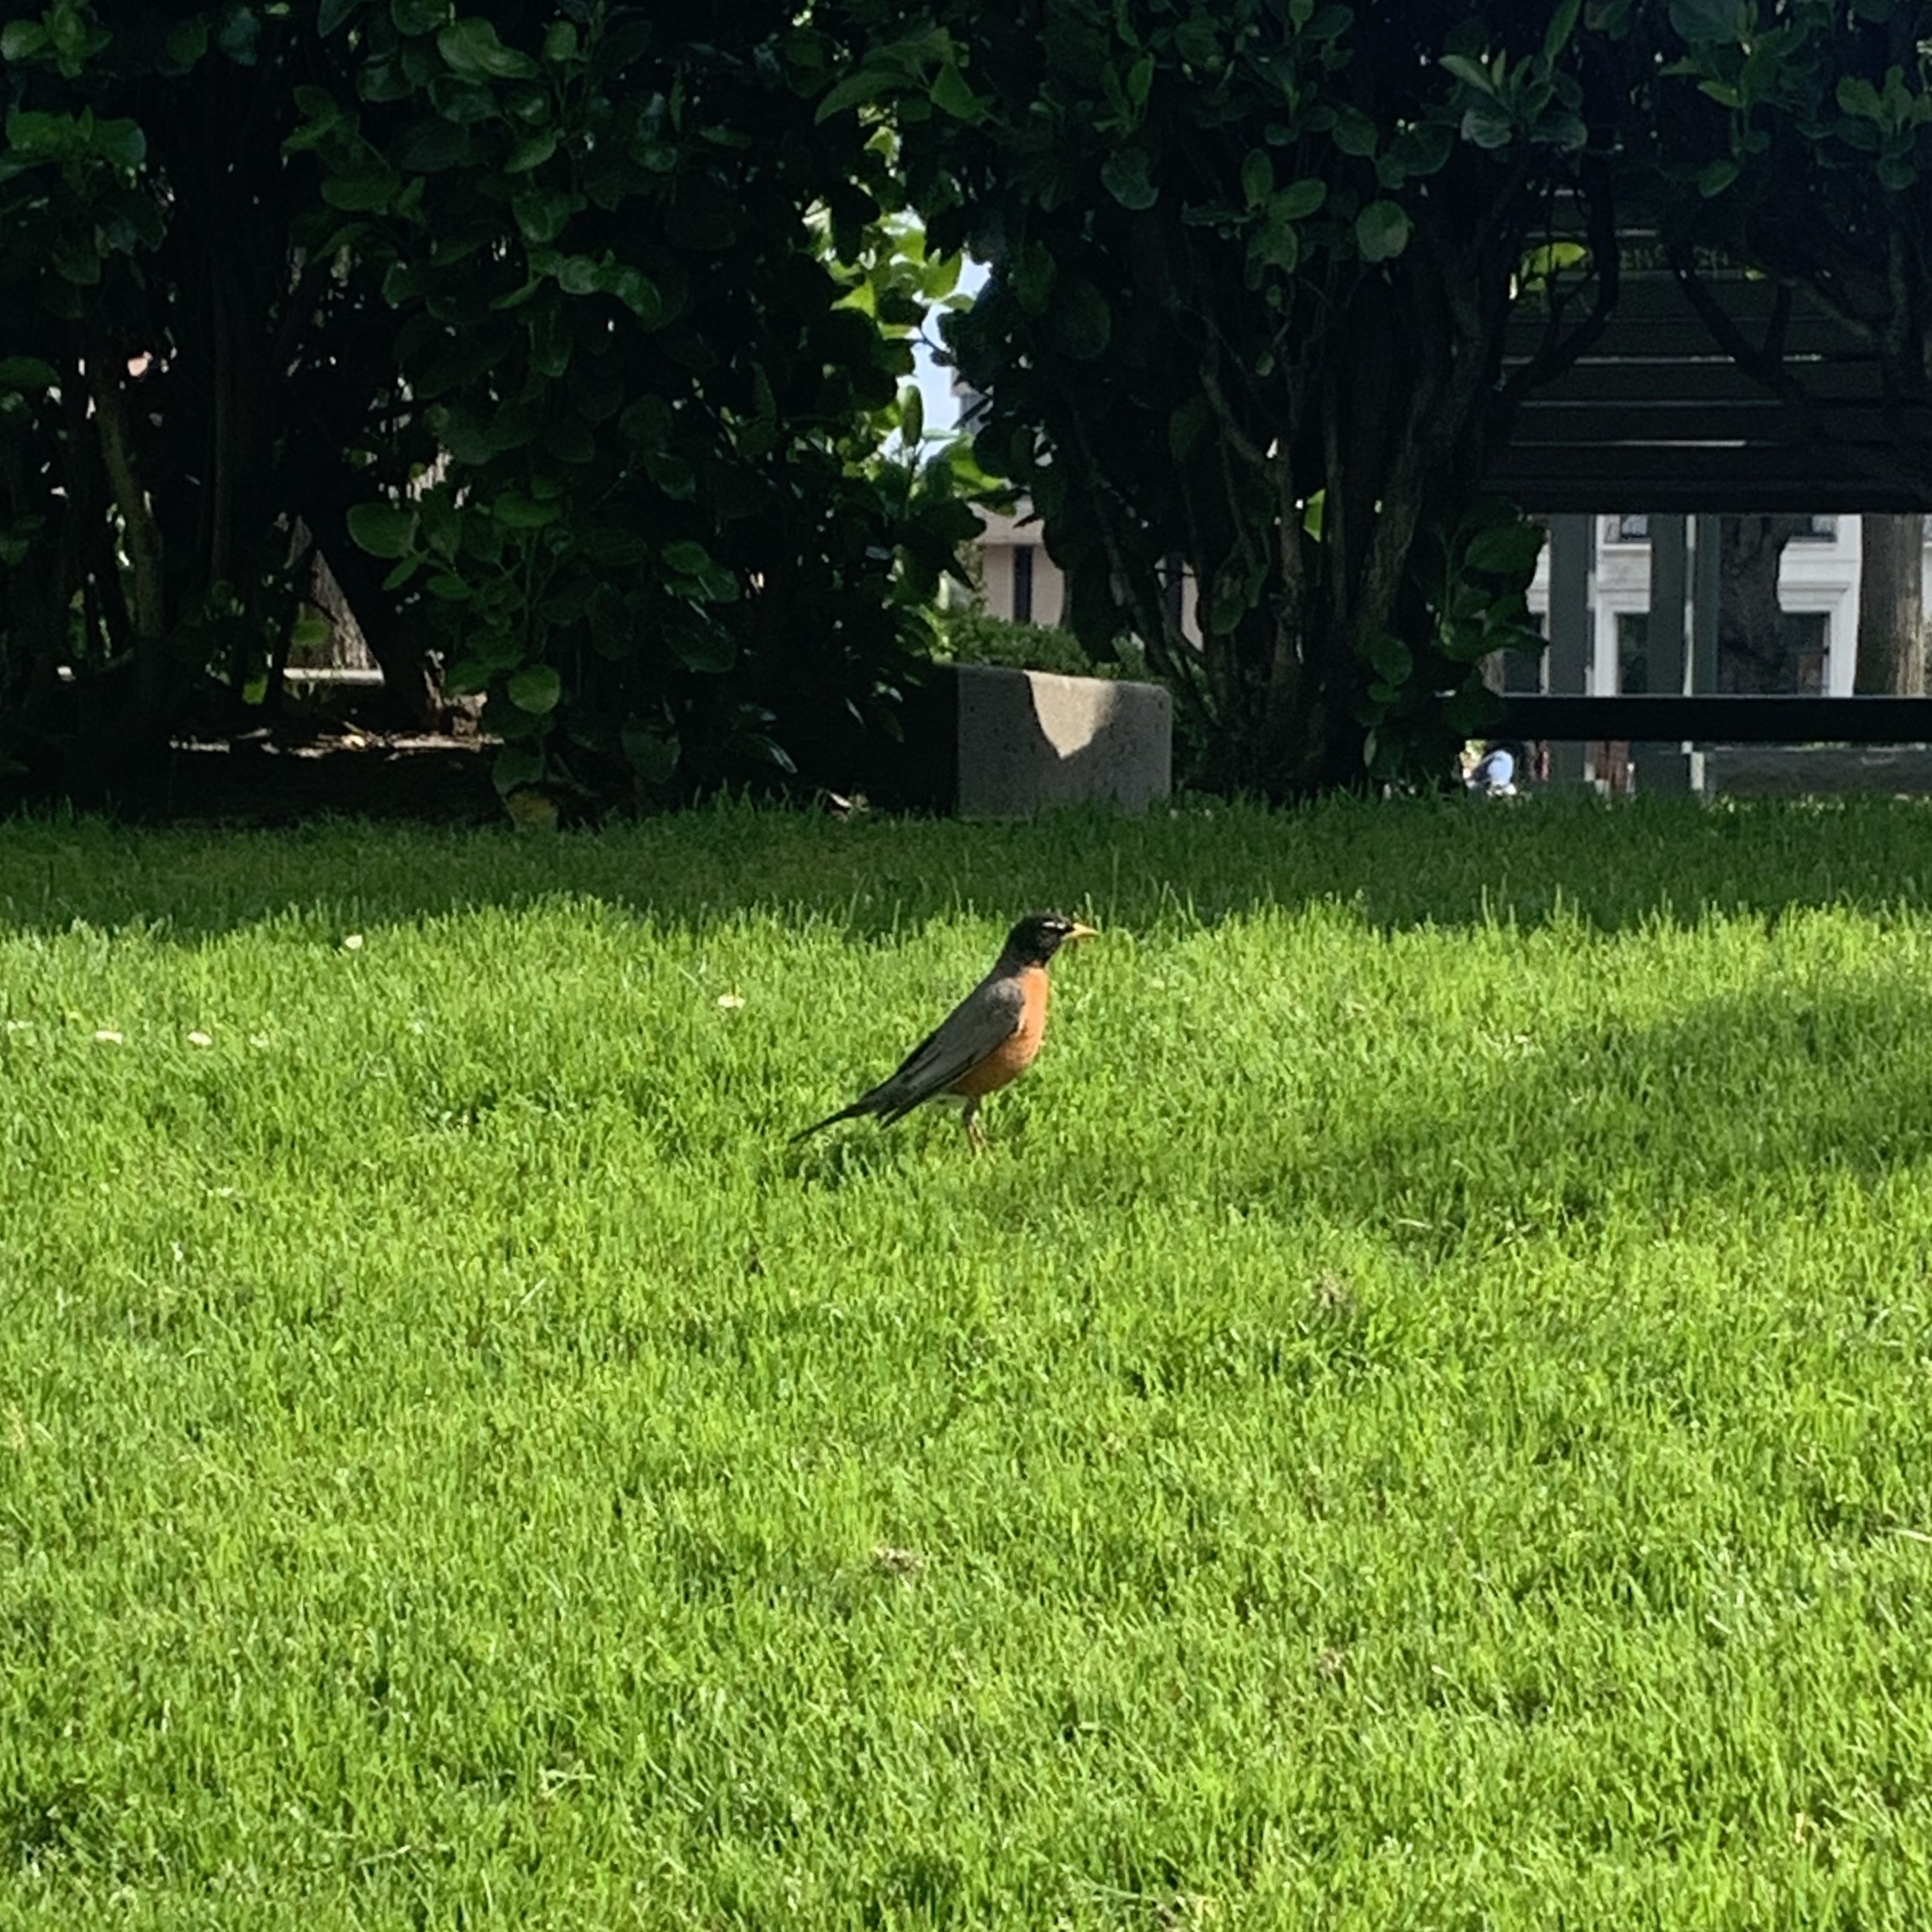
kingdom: Animalia
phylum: Chordata
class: Aves
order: Passeriformes
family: Turdidae
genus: Turdus
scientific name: Turdus migratorius
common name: American robin
